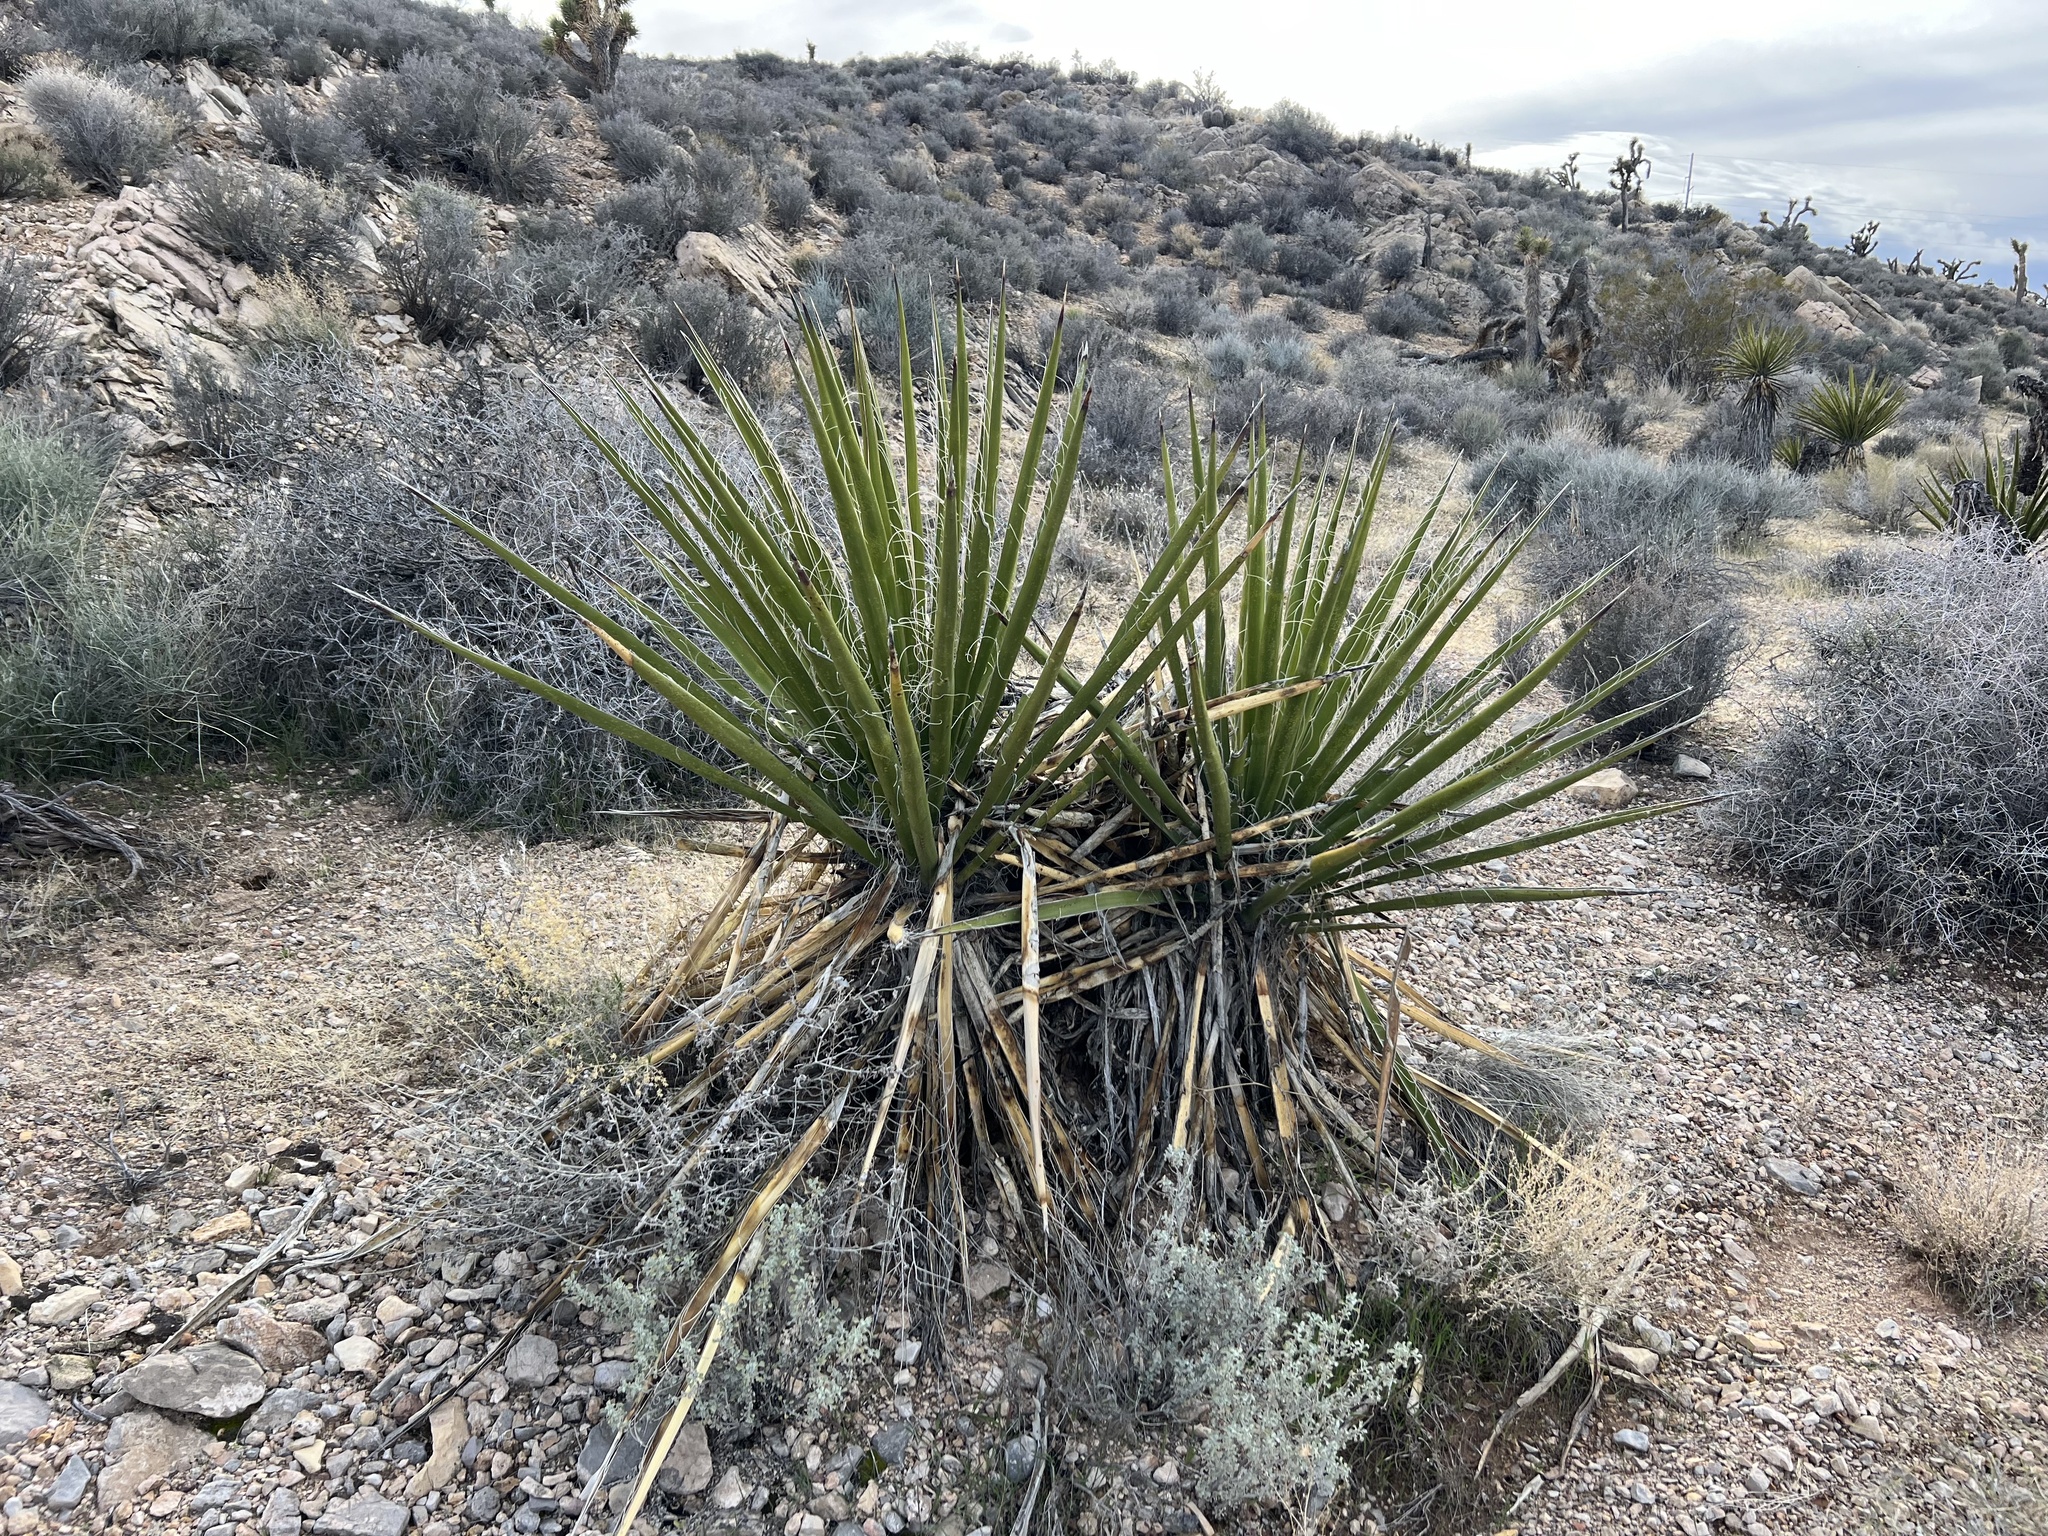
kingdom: Plantae
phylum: Tracheophyta
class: Liliopsida
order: Asparagales
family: Asparagaceae
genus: Yucca
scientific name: Yucca schidigera
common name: Mojave yucca
